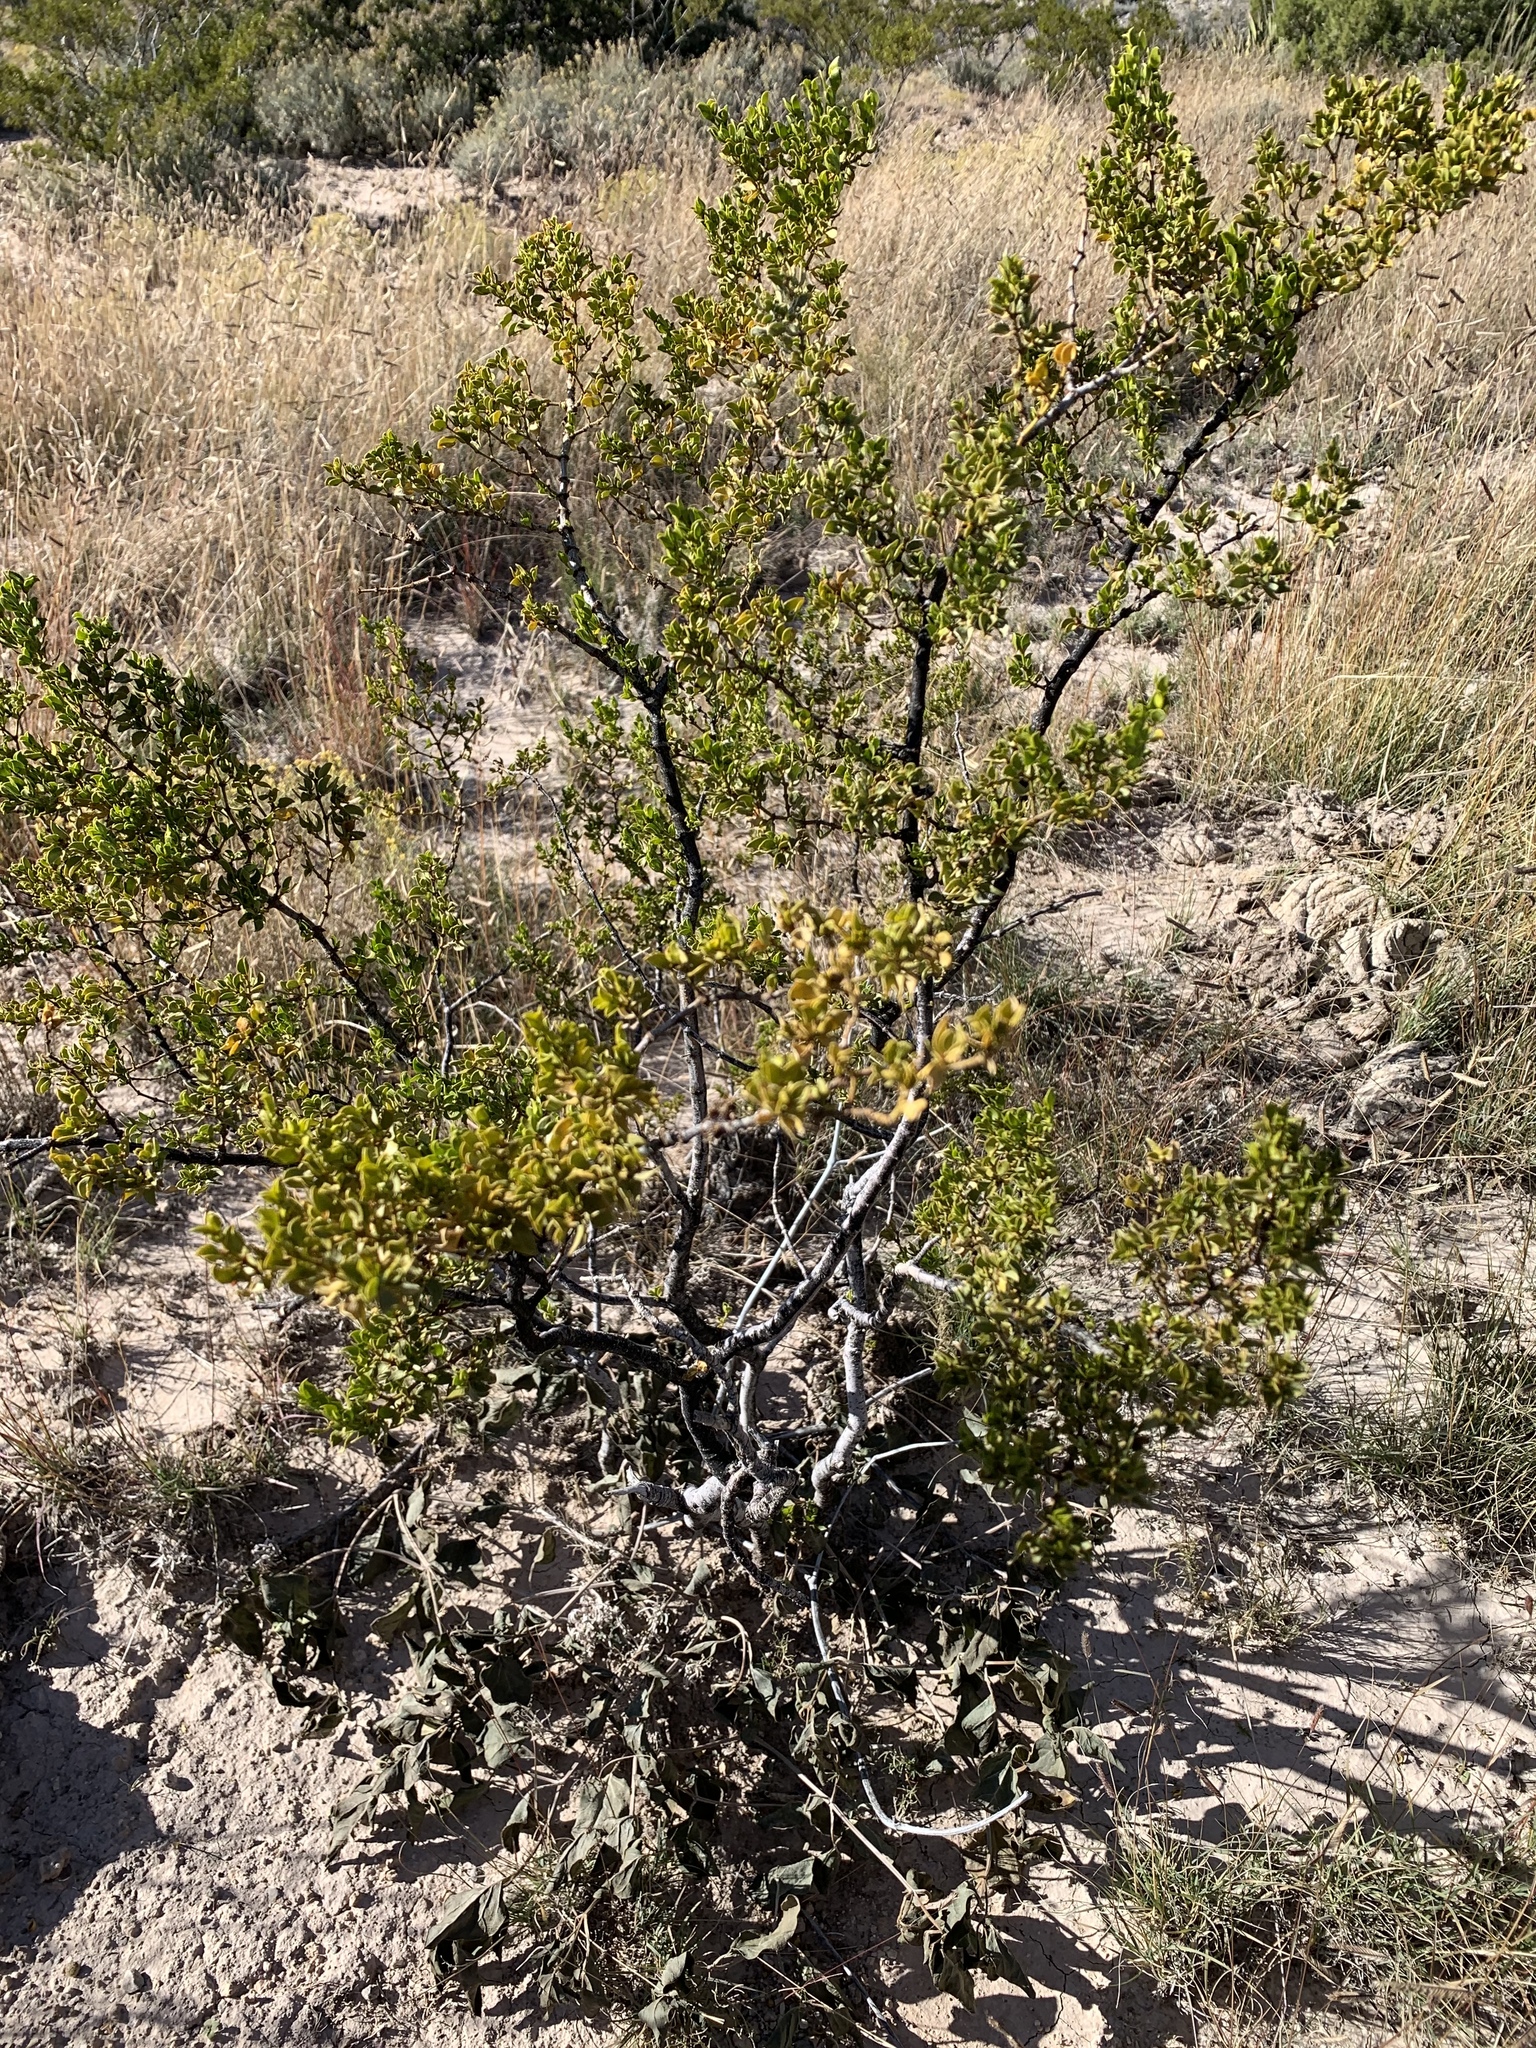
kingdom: Plantae
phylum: Tracheophyta
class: Magnoliopsida
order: Zygophyllales
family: Zygophyllaceae
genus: Larrea
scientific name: Larrea tridentata
